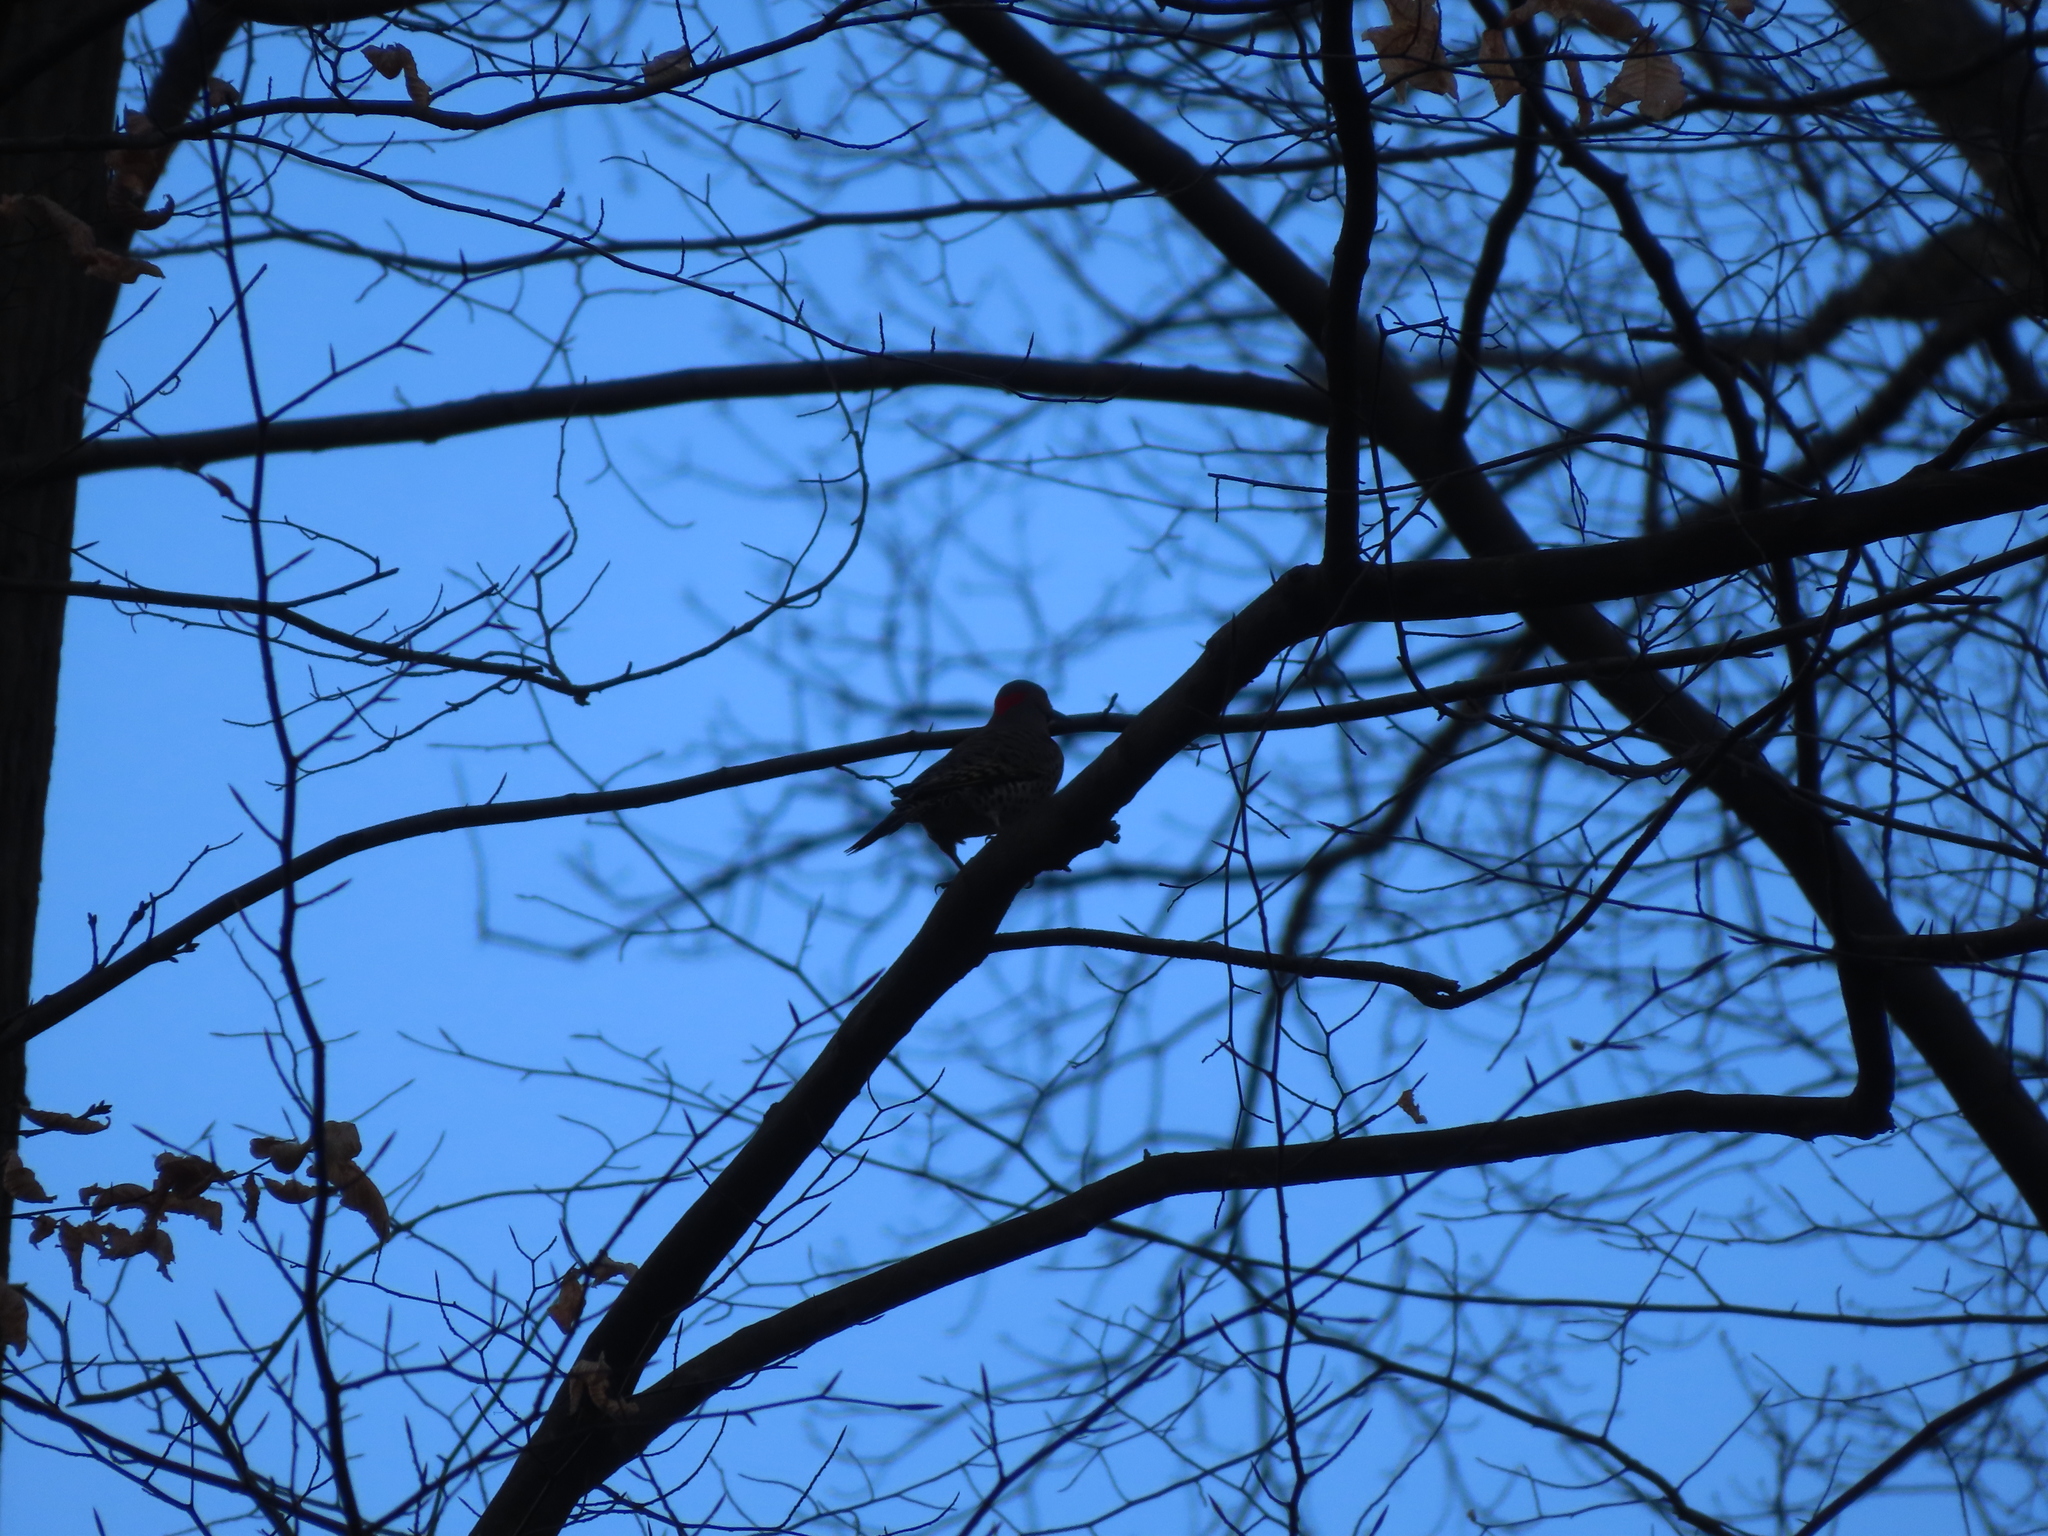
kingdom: Animalia
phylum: Chordata
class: Aves
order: Piciformes
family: Picidae
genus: Colaptes
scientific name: Colaptes auratus
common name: Northern flicker
